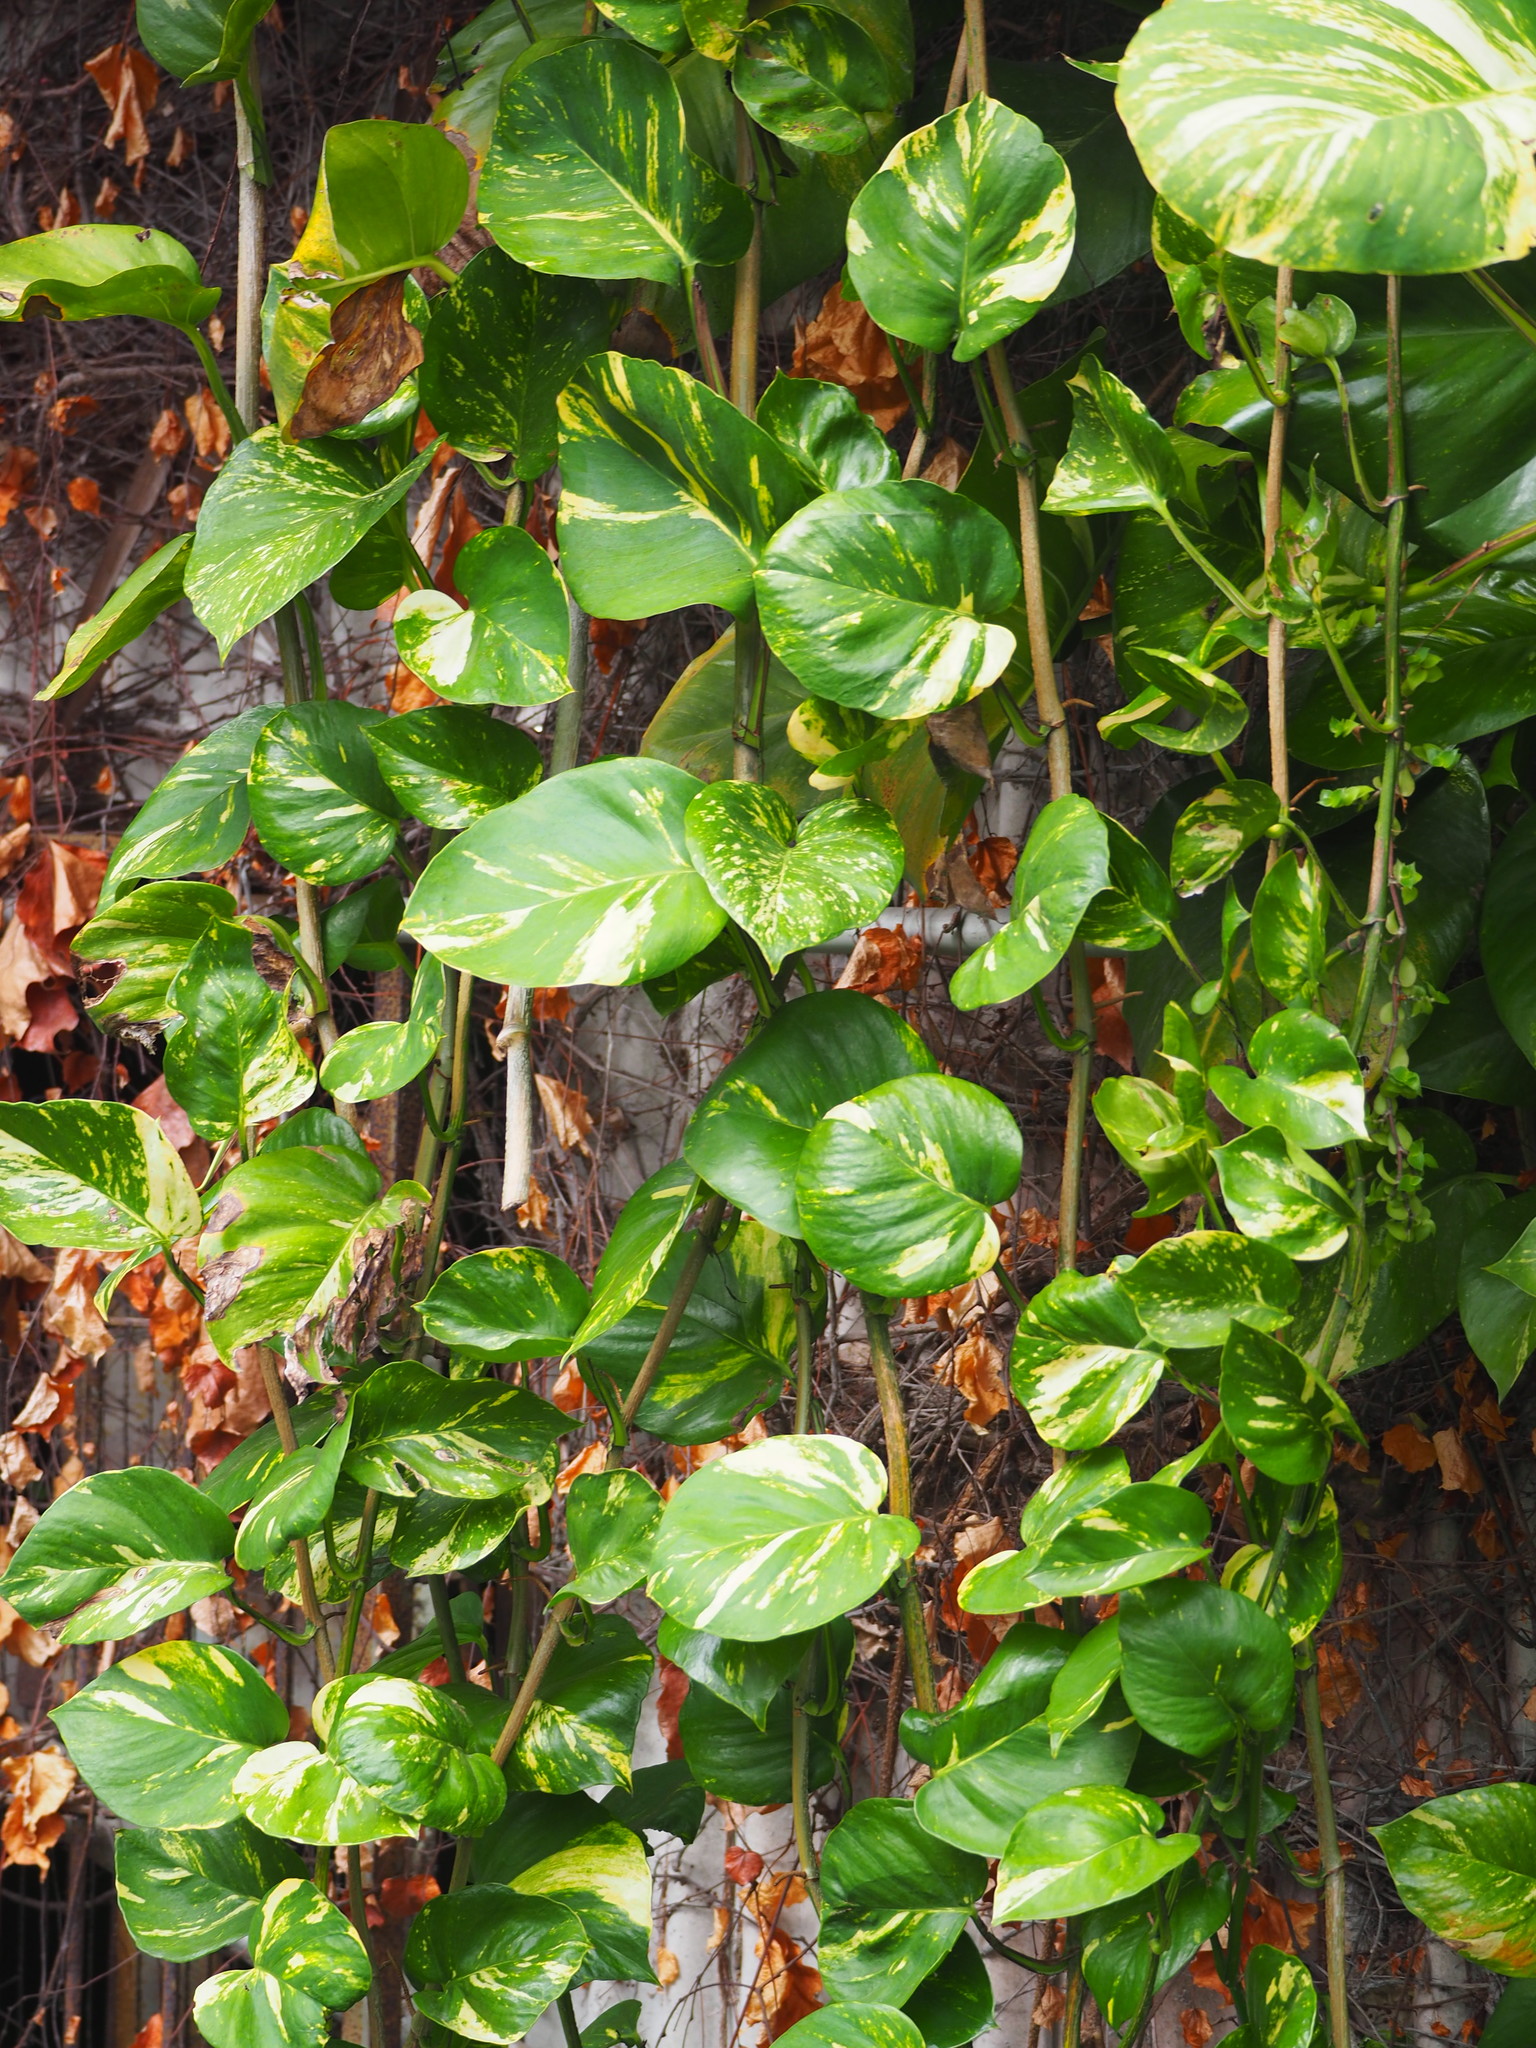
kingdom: Plantae
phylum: Tracheophyta
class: Liliopsida
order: Alismatales
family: Araceae
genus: Epipremnum
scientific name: Epipremnum aureum
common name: Golden hunter's-robe
